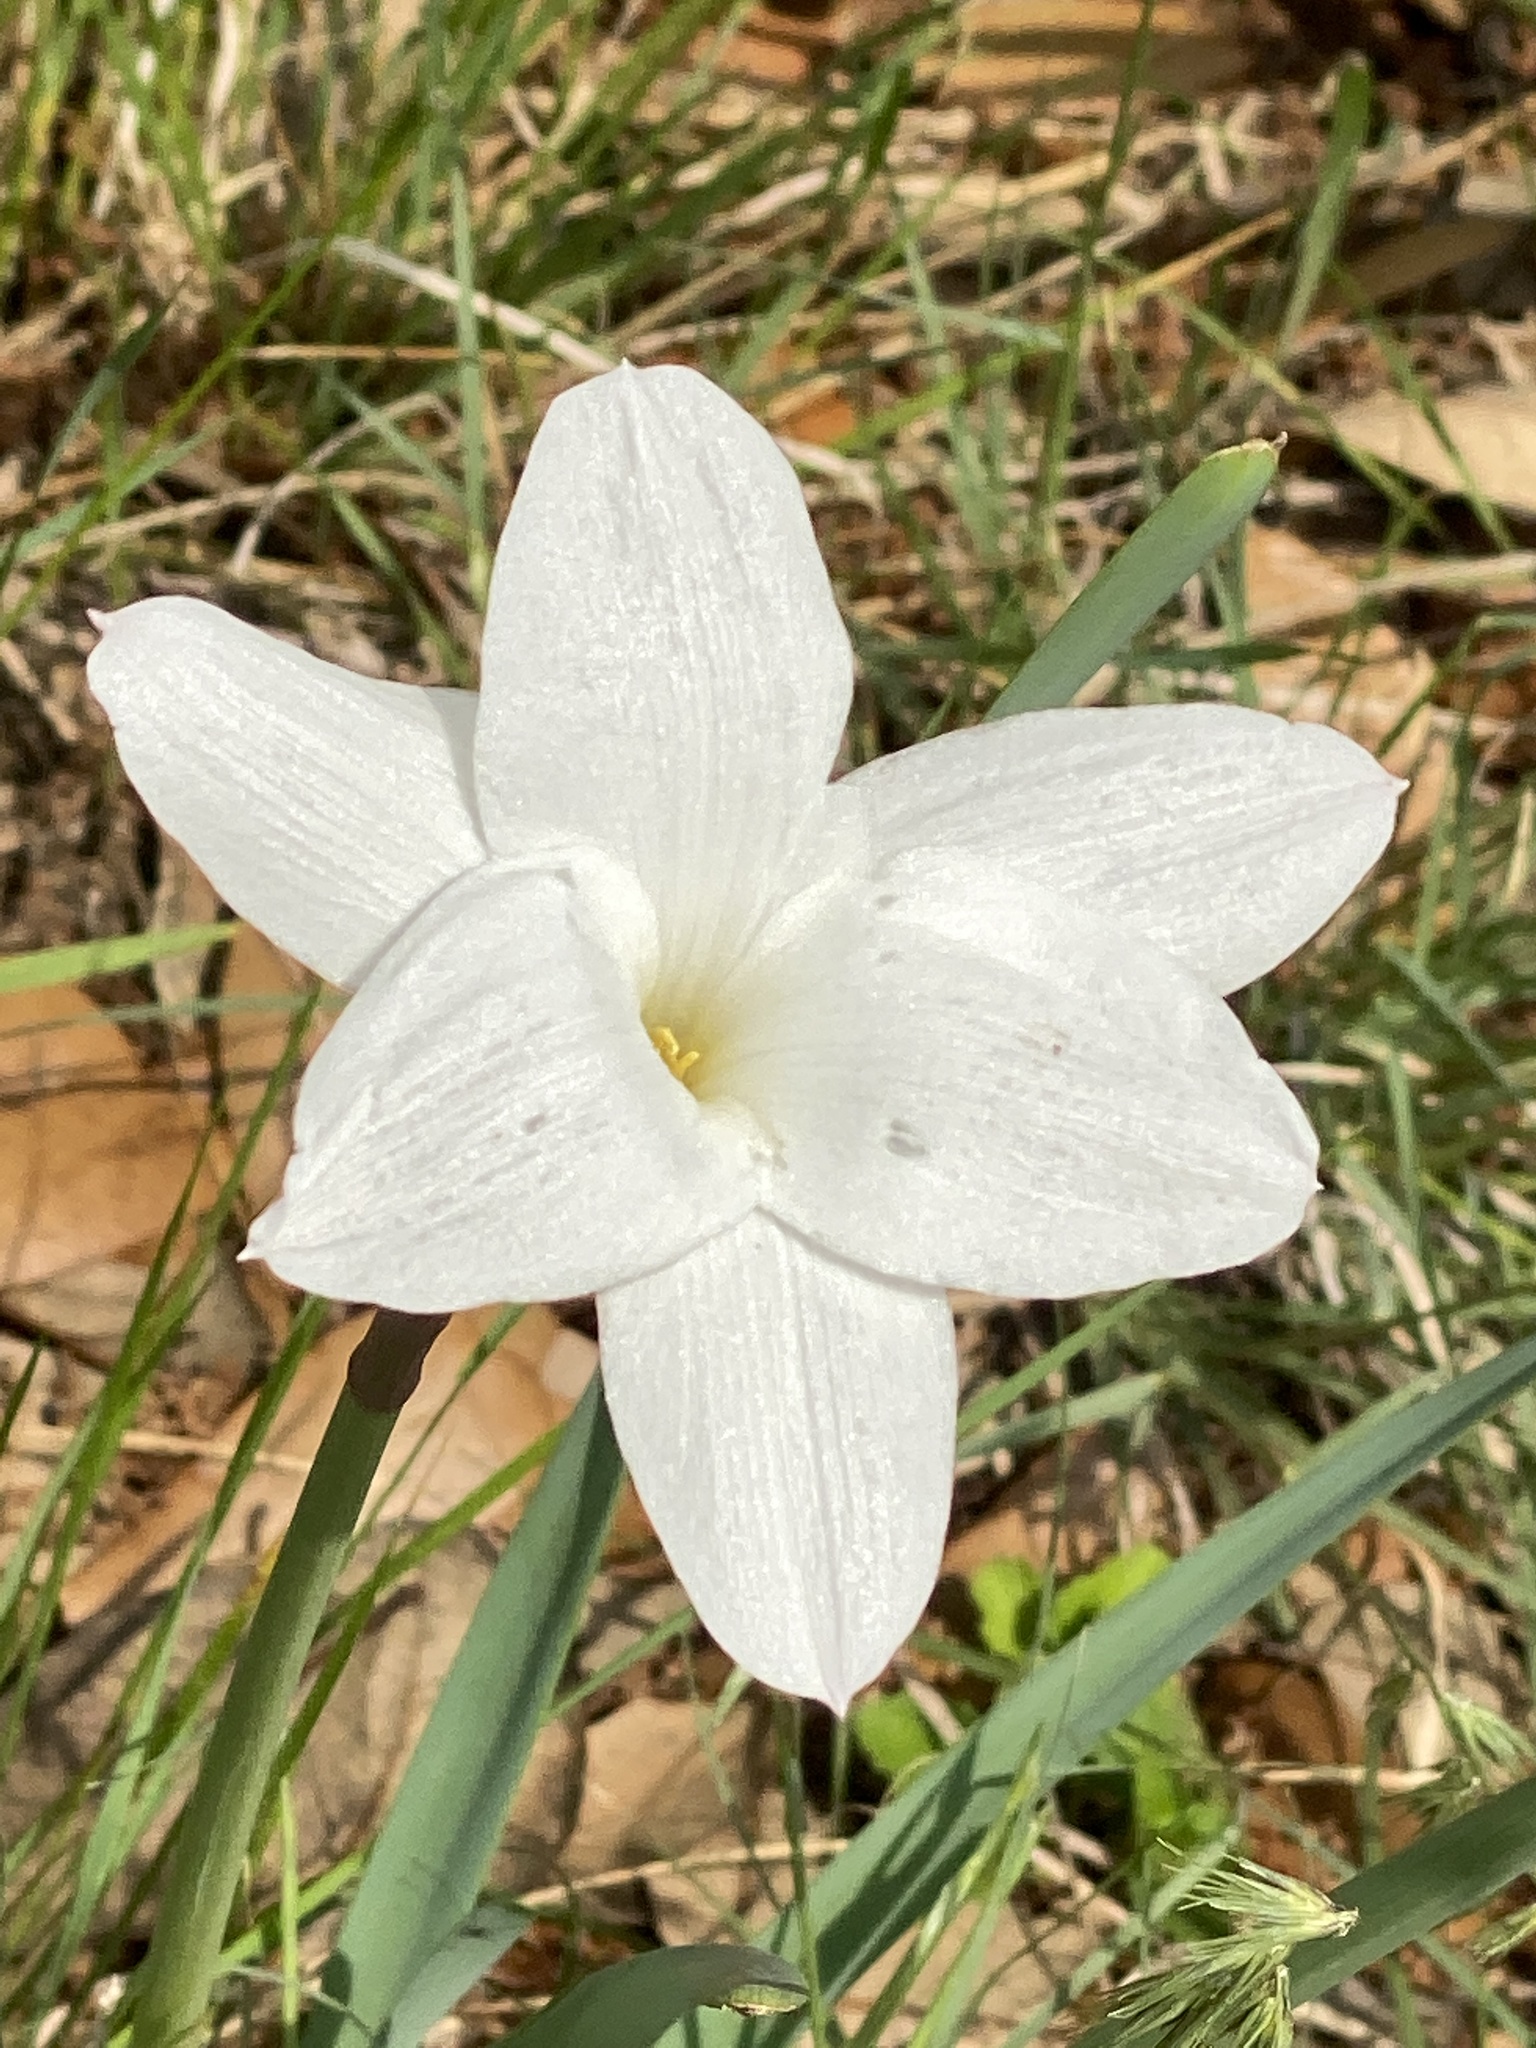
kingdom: Plantae
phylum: Tracheophyta
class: Liliopsida
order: Asparagales
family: Amaryllidaceae
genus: Zephyranthes
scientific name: Zephyranthes drummondii
